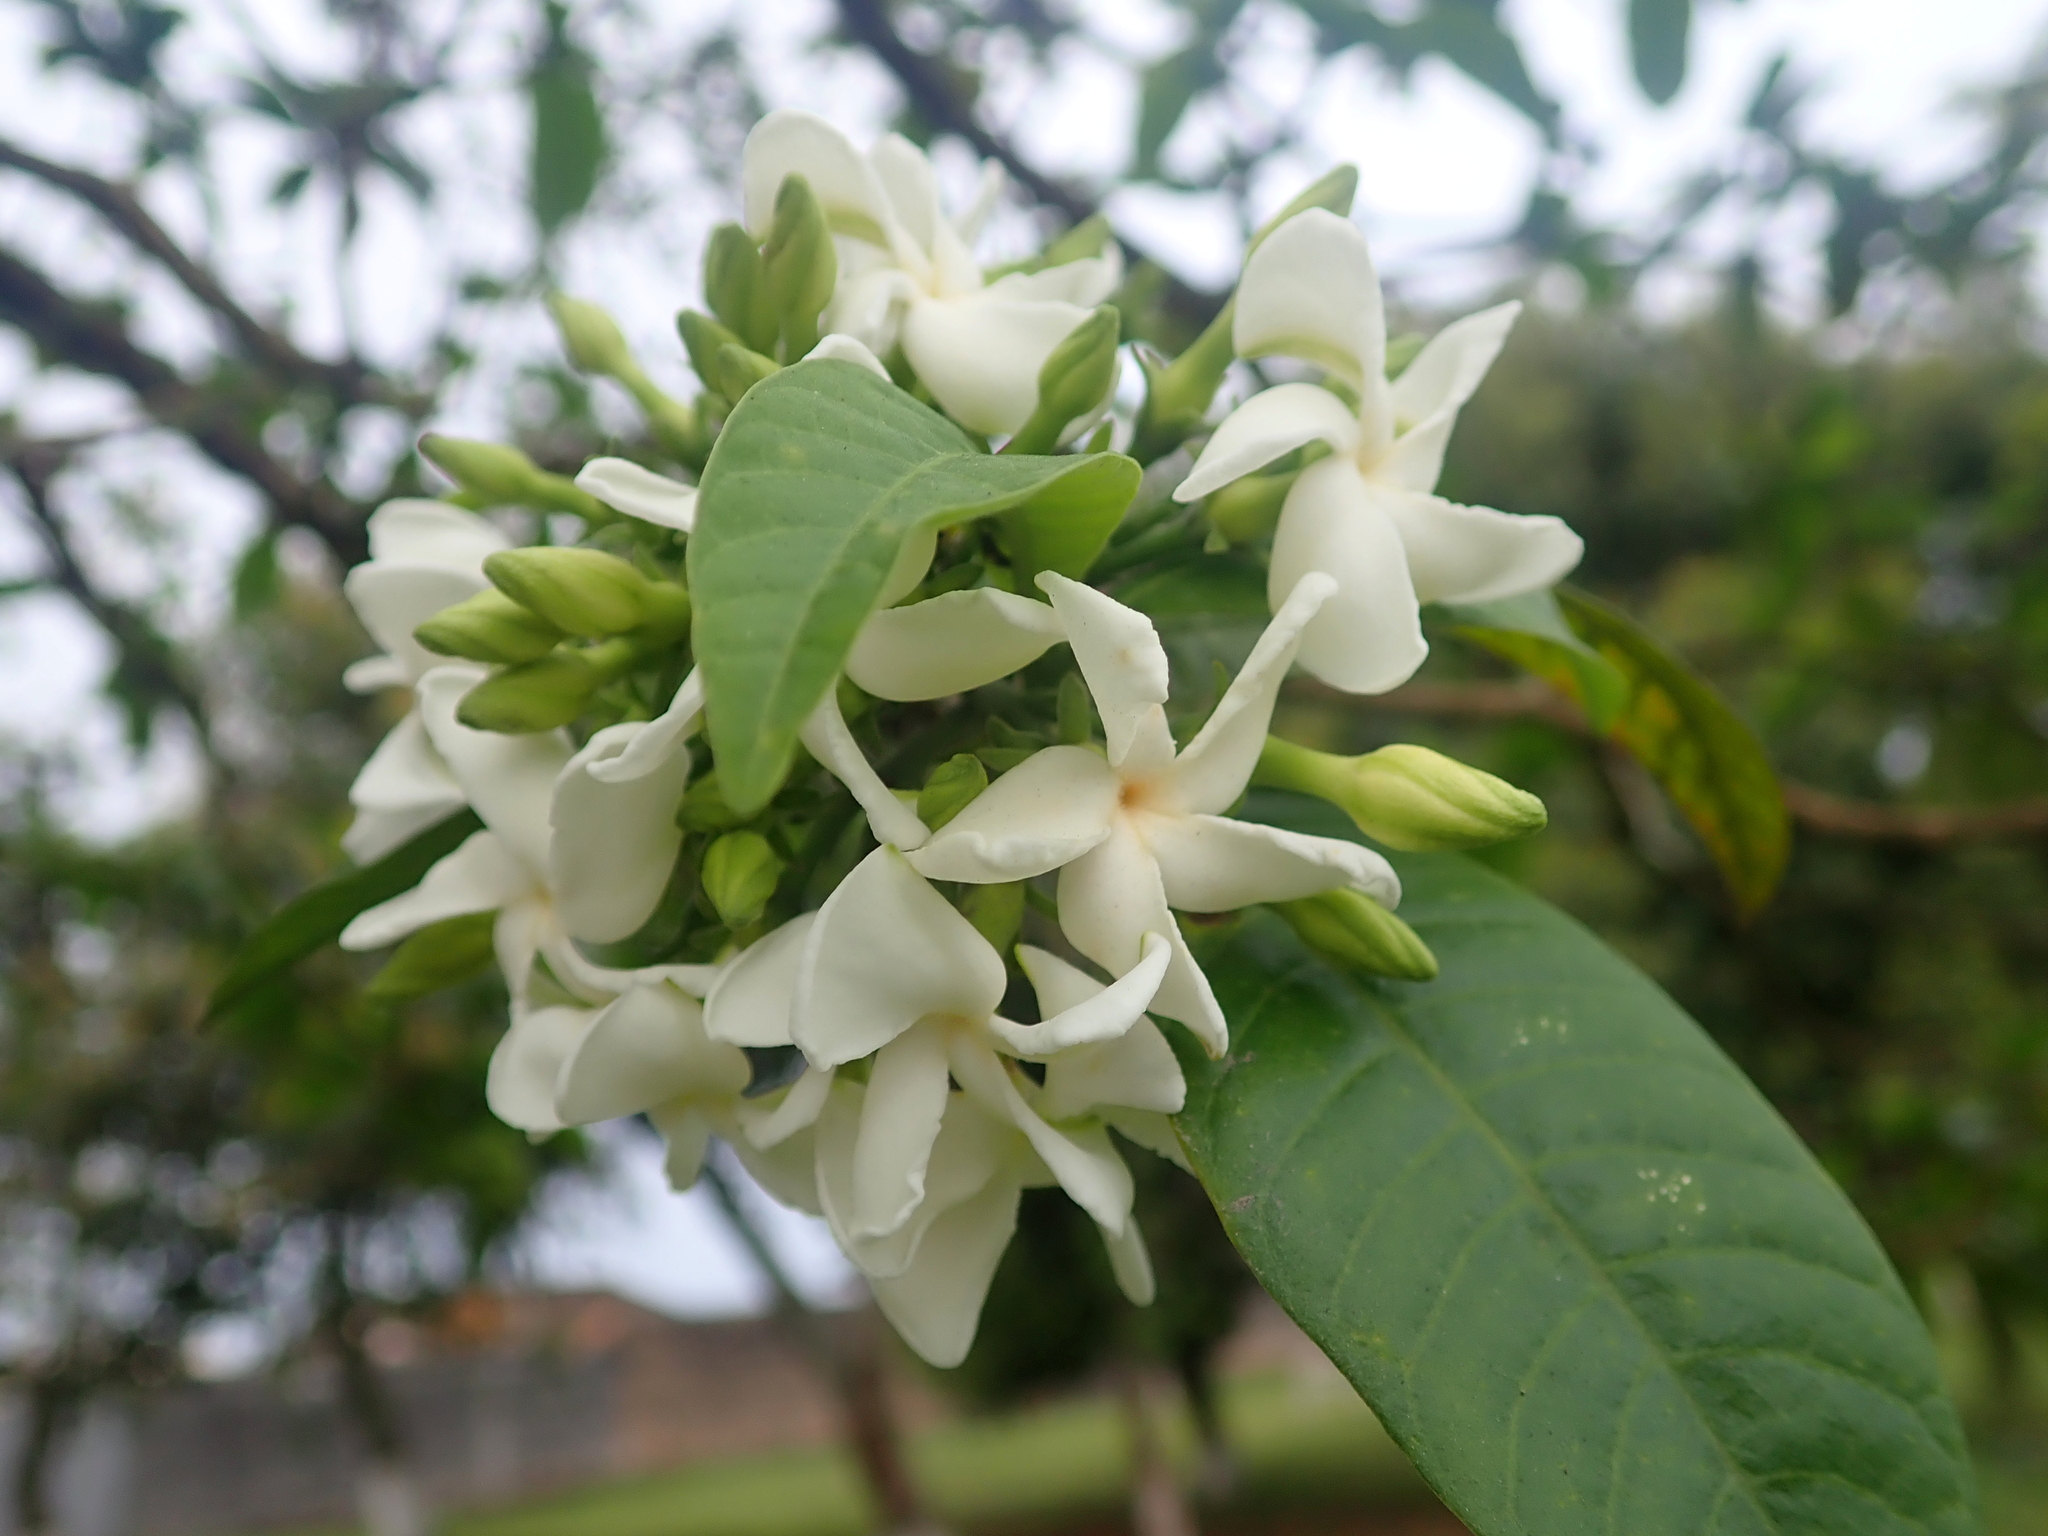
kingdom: Plantae
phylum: Tracheophyta
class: Magnoliopsida
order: Gentianales
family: Apocynaceae
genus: Tabernaemontana
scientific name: Tabernaemontana catharinensis
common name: Pinwheel-flower
